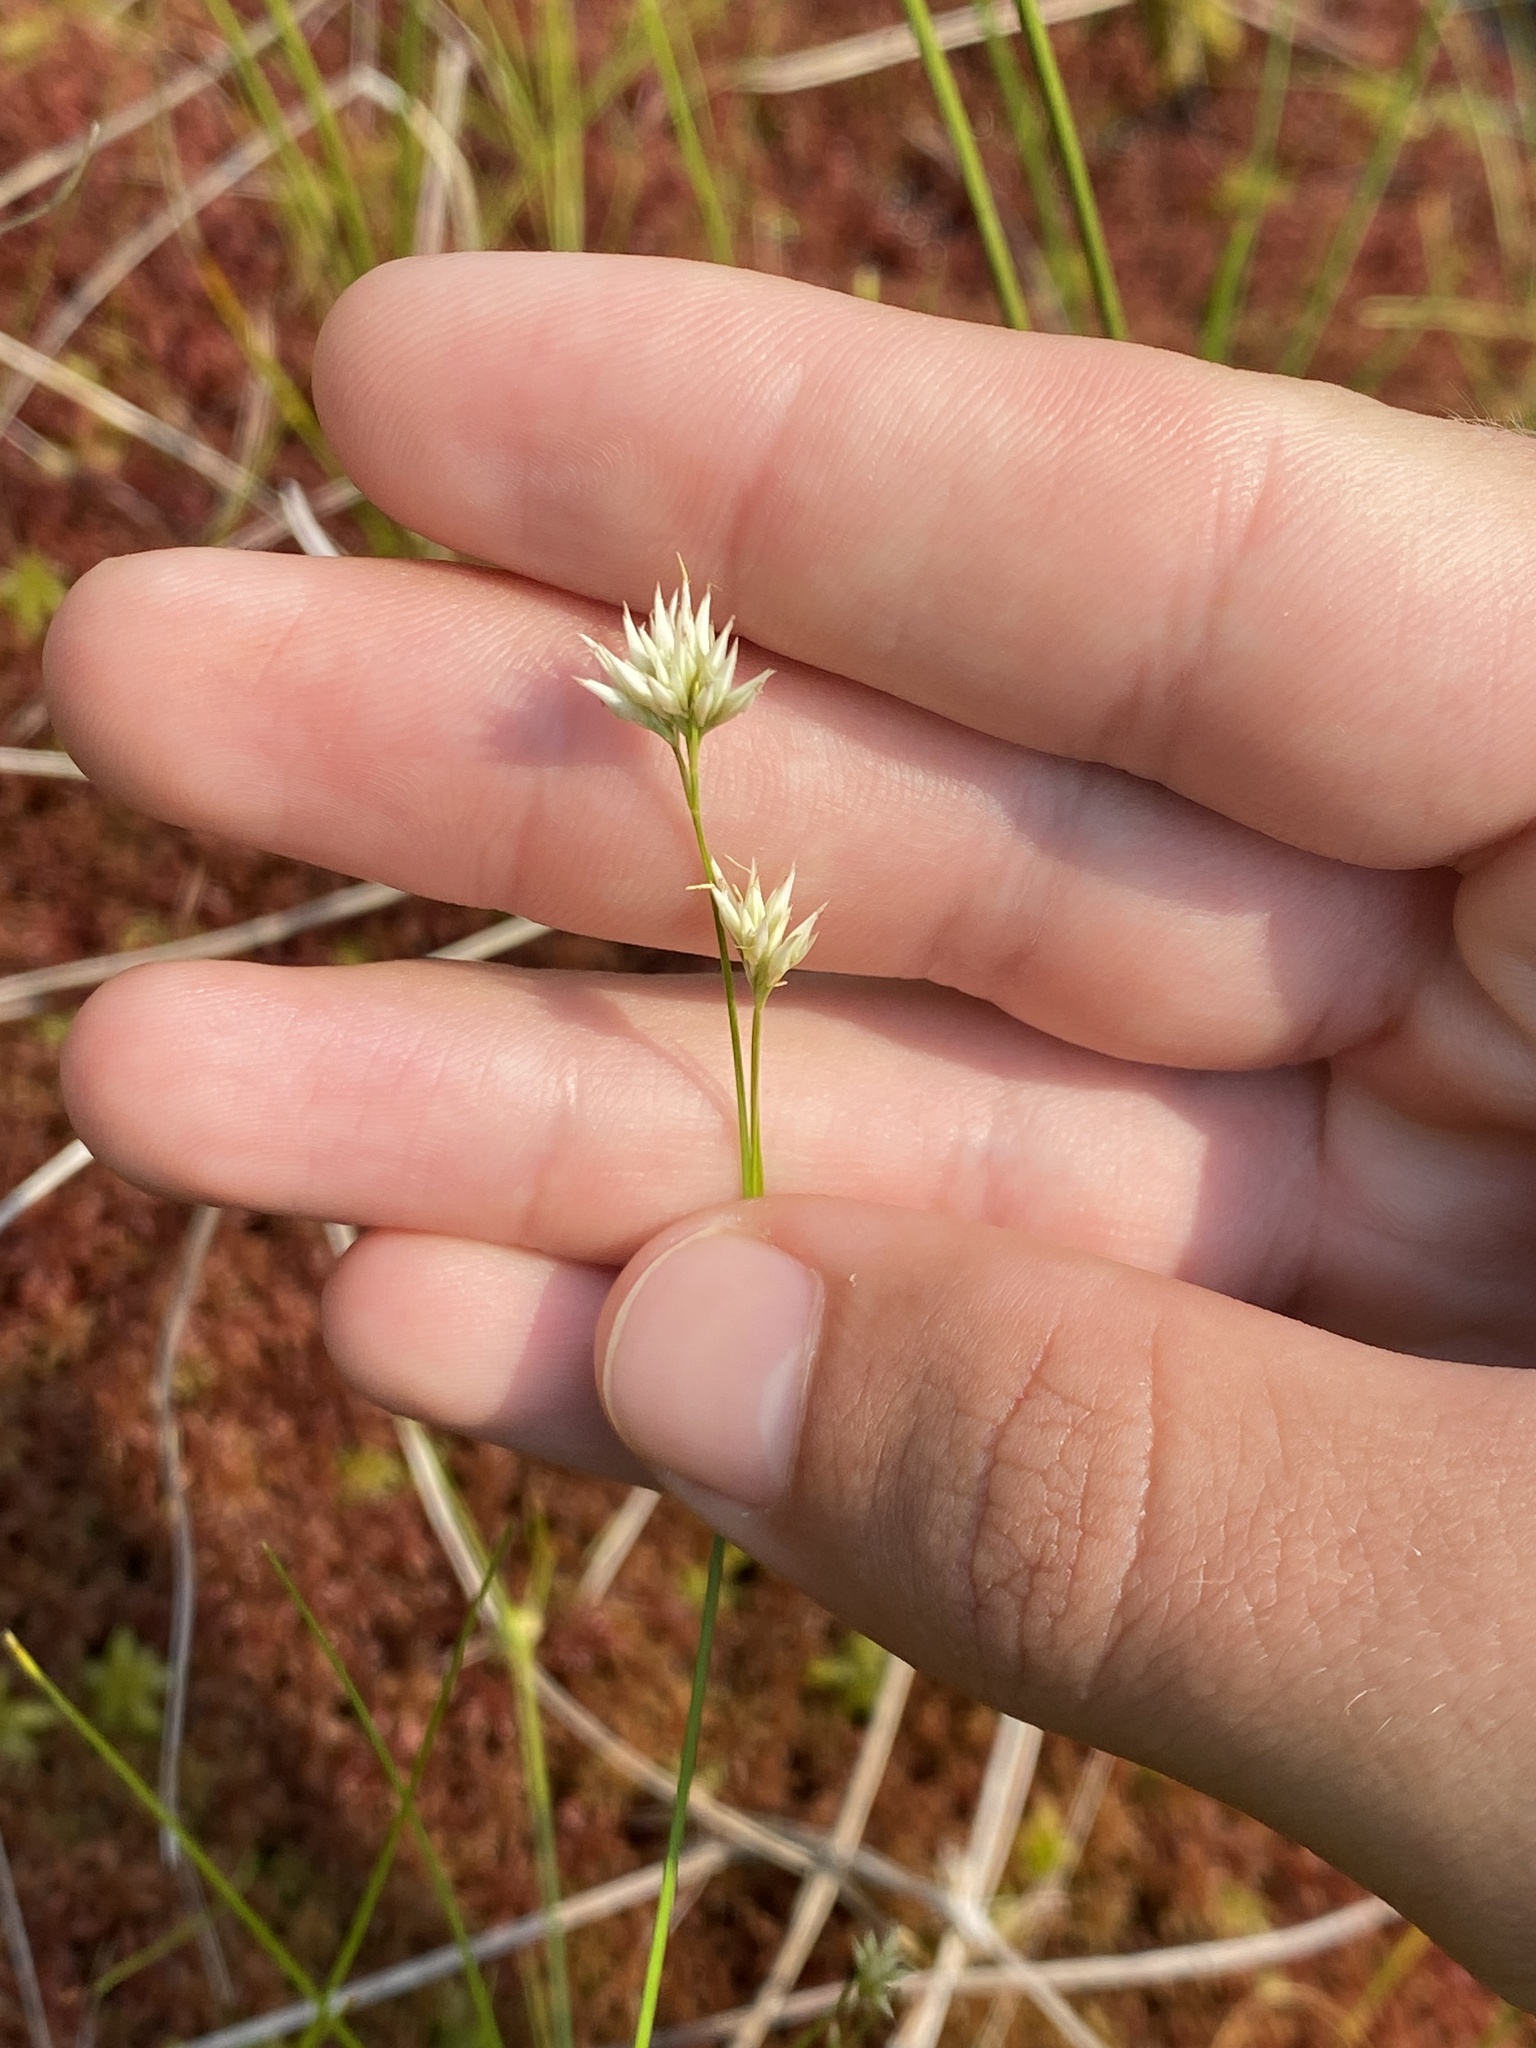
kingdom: Plantae
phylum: Tracheophyta
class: Liliopsida
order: Poales
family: Cyperaceae
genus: Rhynchospora
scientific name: Rhynchospora alba
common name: White beak-sedge
